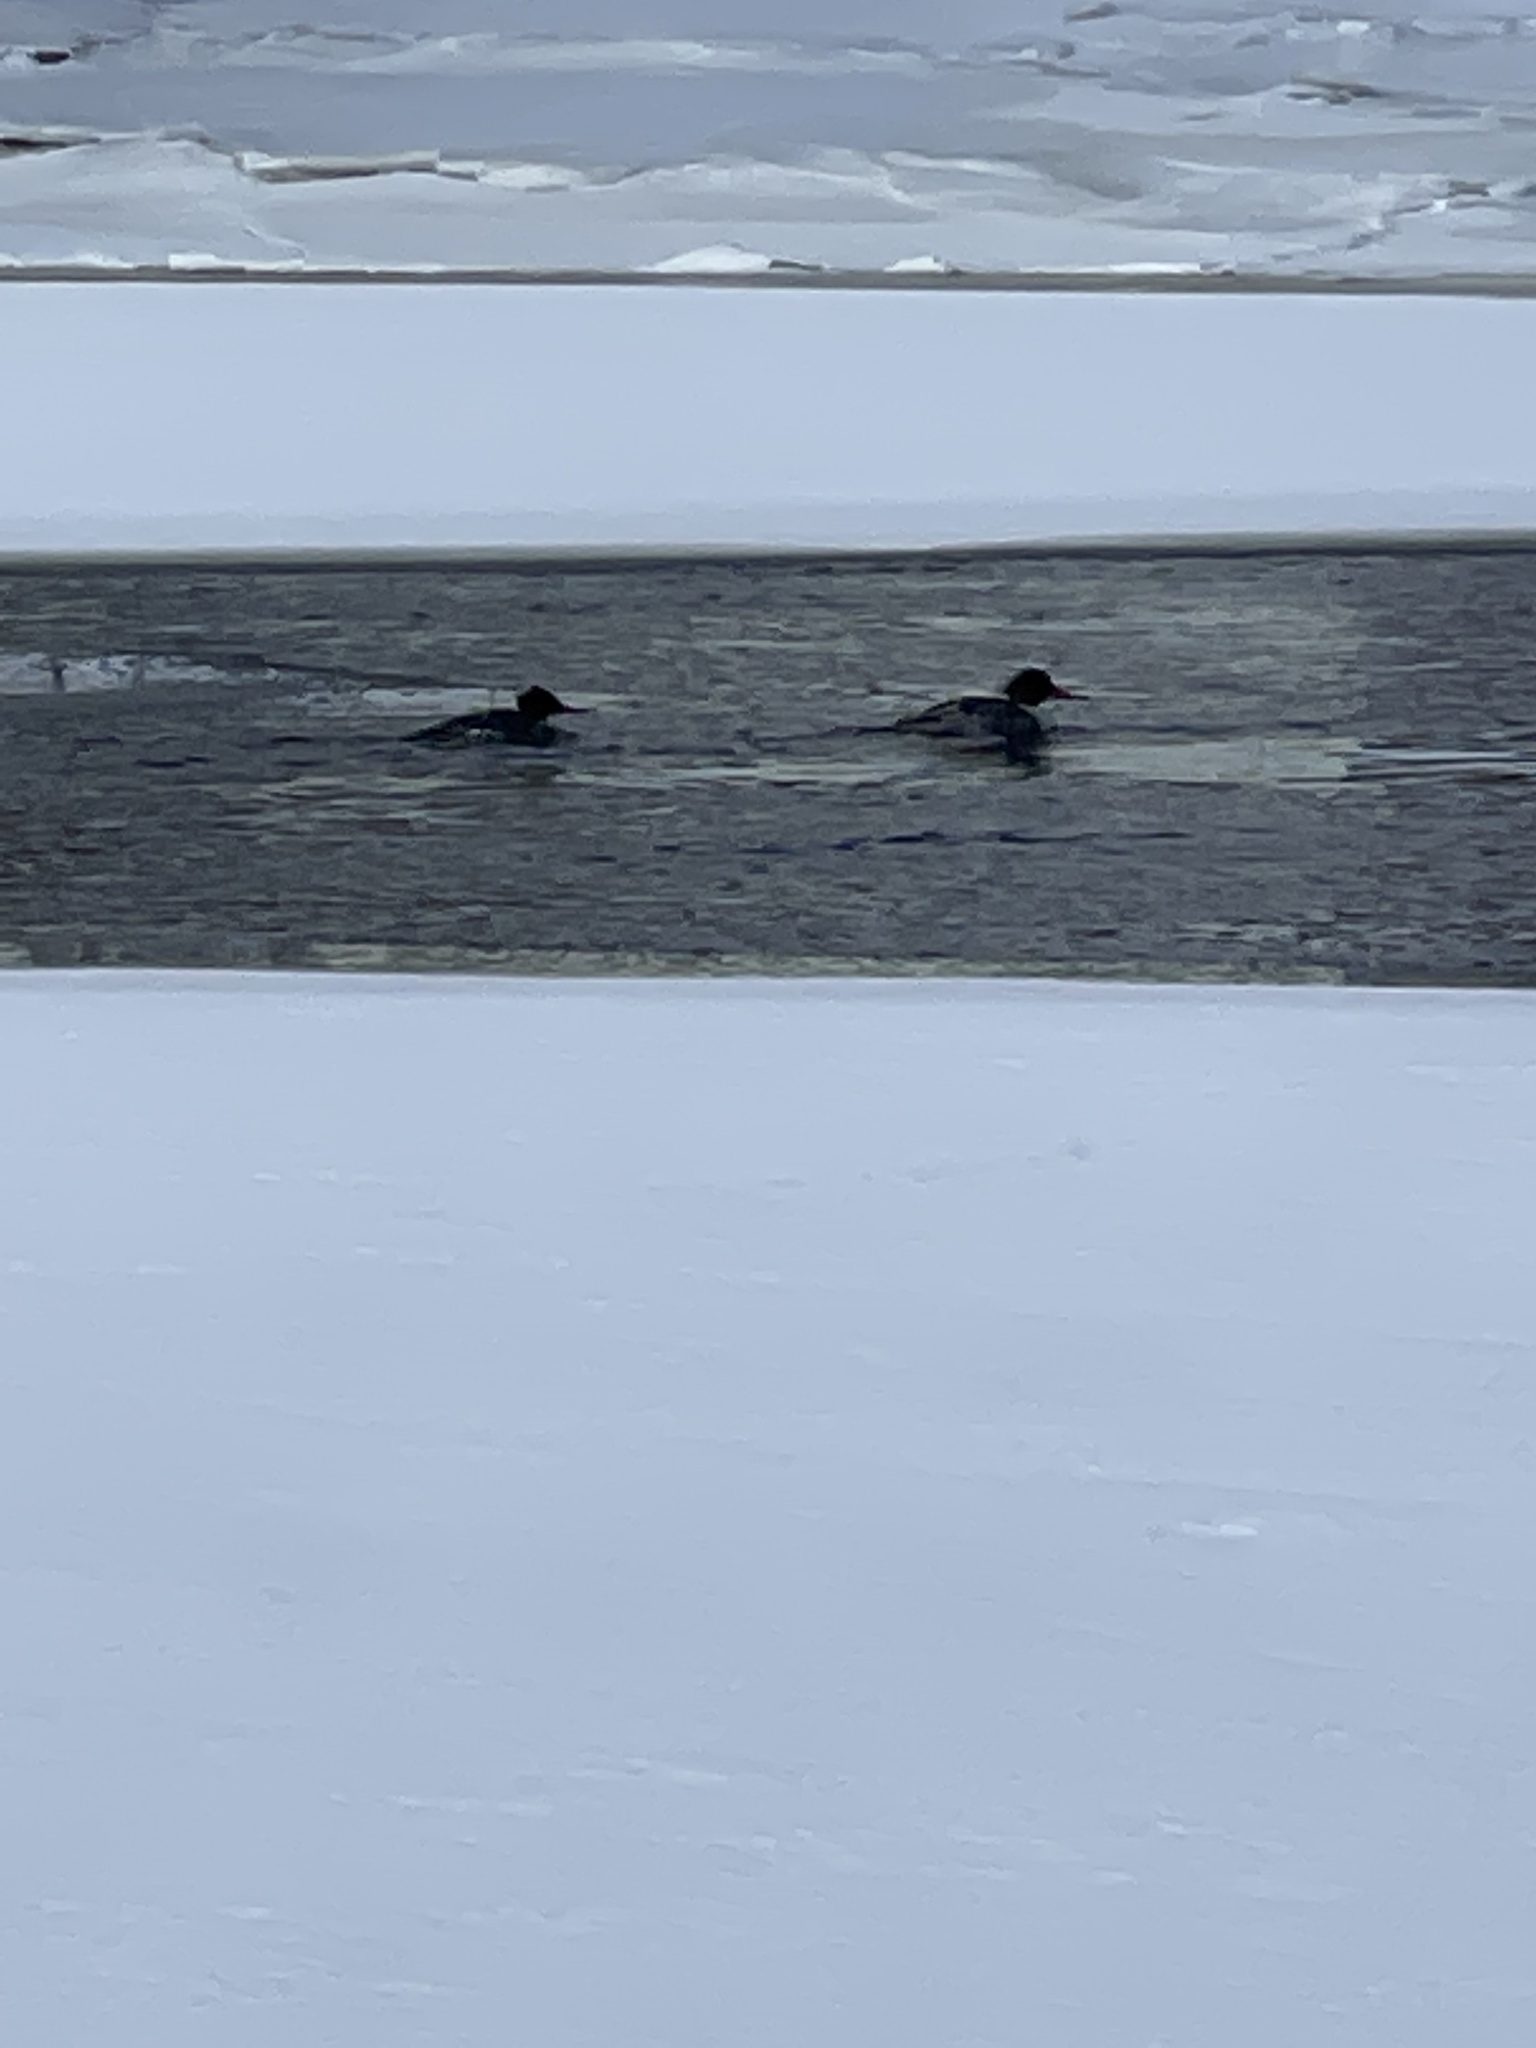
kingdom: Animalia
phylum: Chordata
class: Aves
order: Anseriformes
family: Anatidae
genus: Mergus
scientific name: Mergus serrator
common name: Red-breasted merganser
